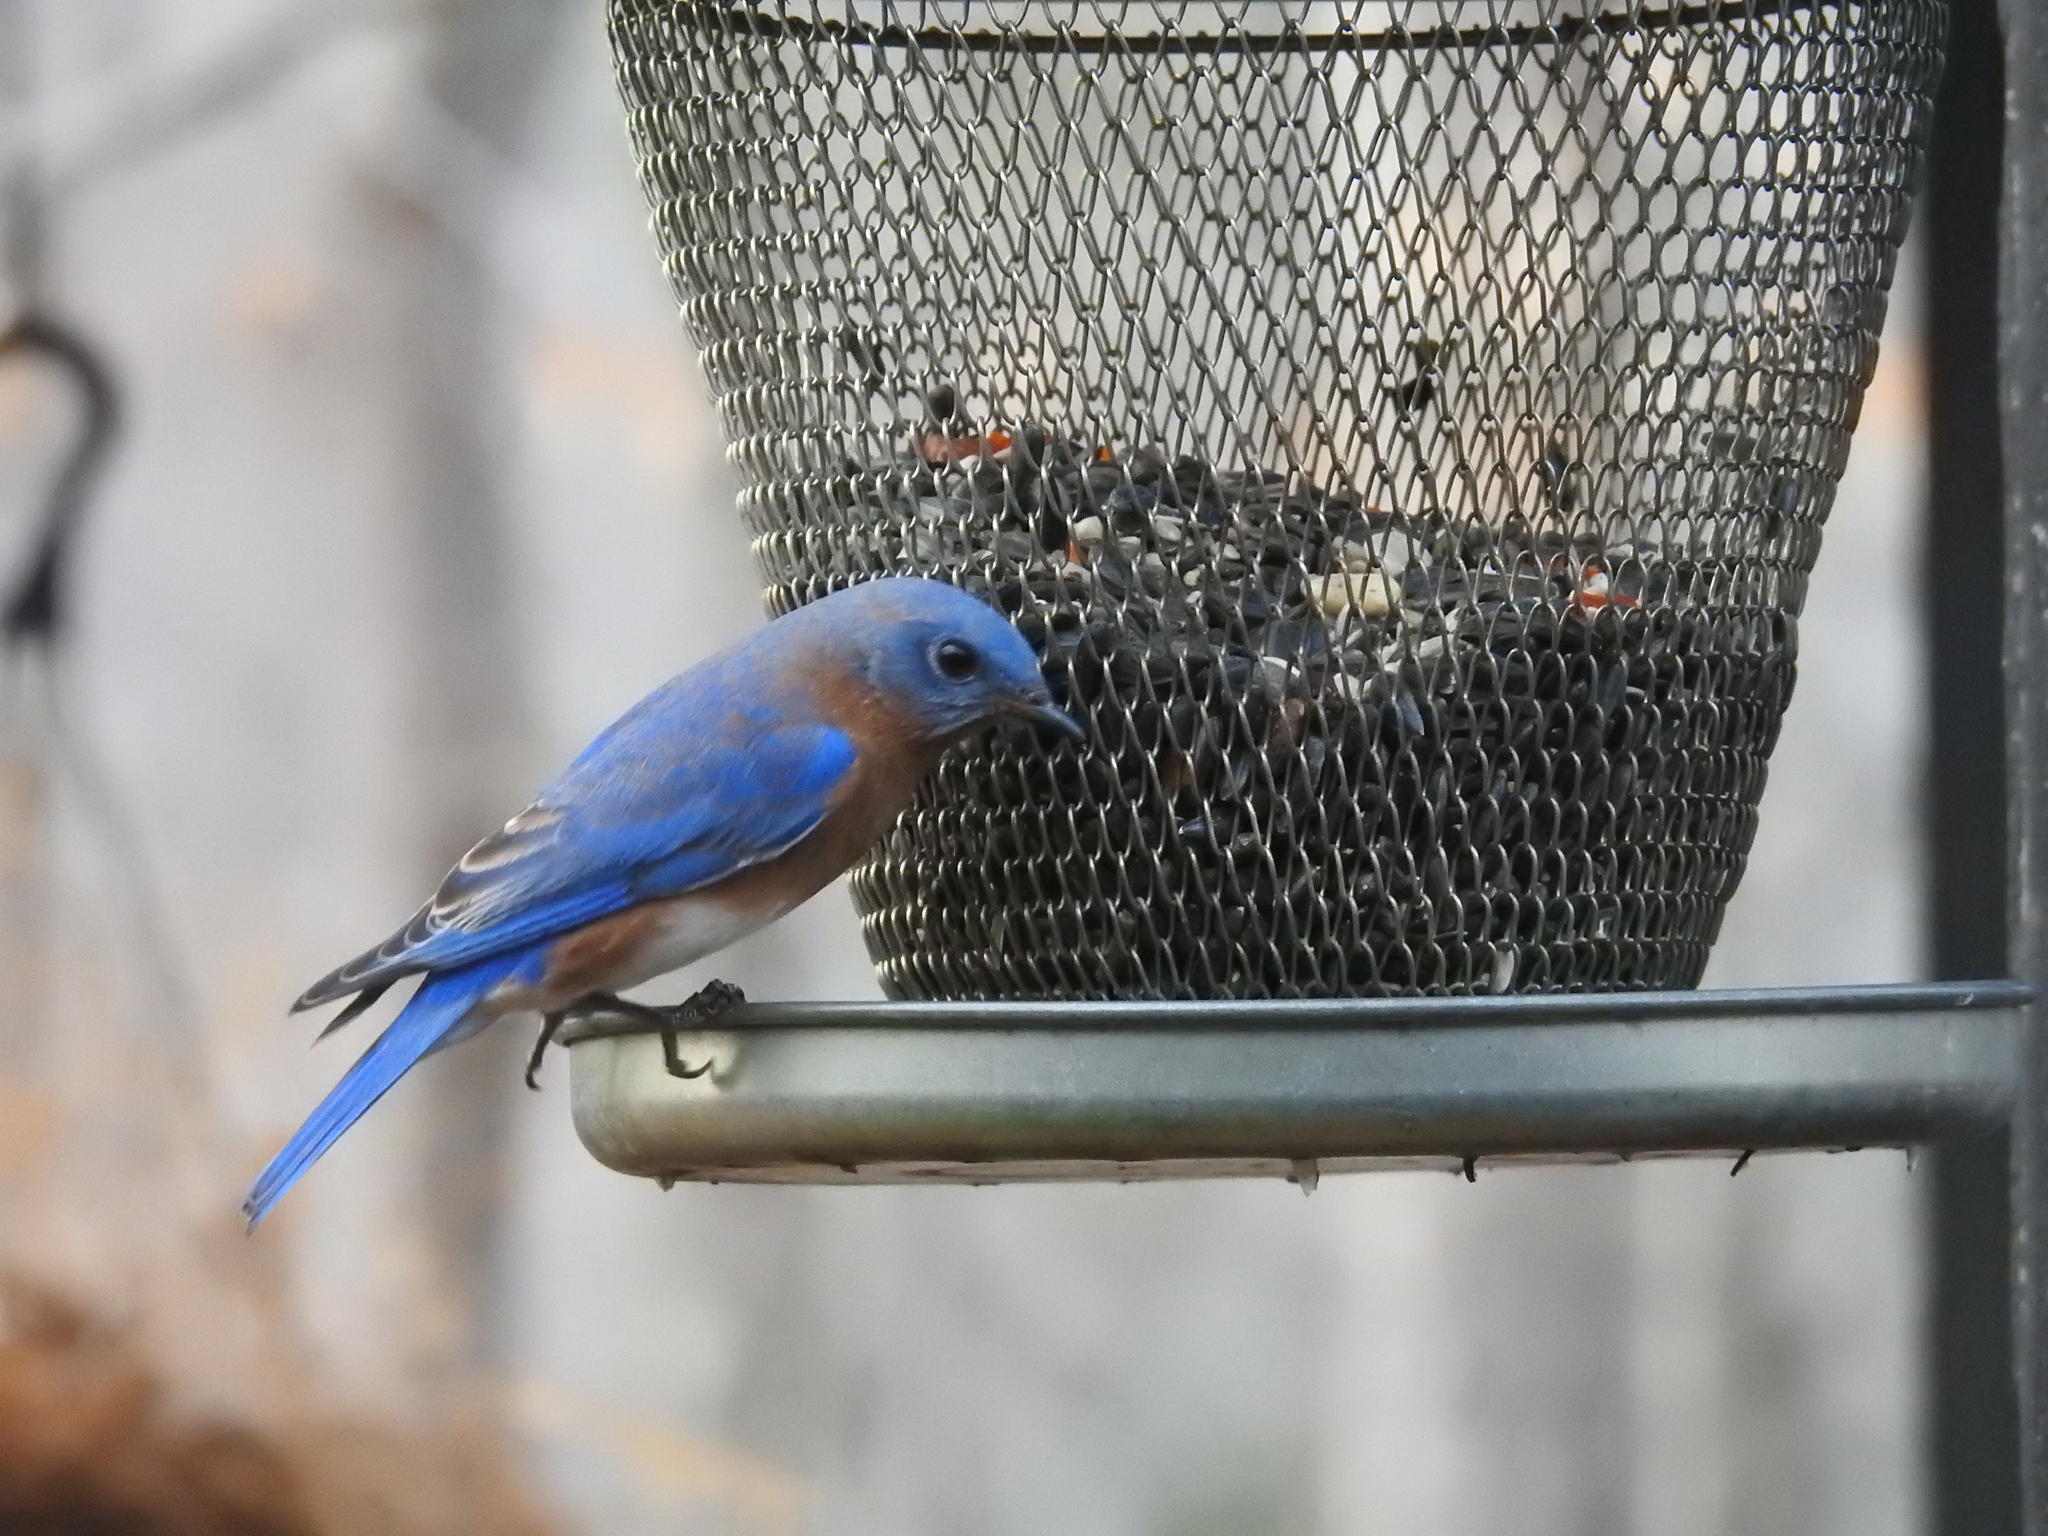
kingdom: Animalia
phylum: Chordata
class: Aves
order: Passeriformes
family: Turdidae
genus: Sialia
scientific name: Sialia sialis
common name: Eastern bluebird
